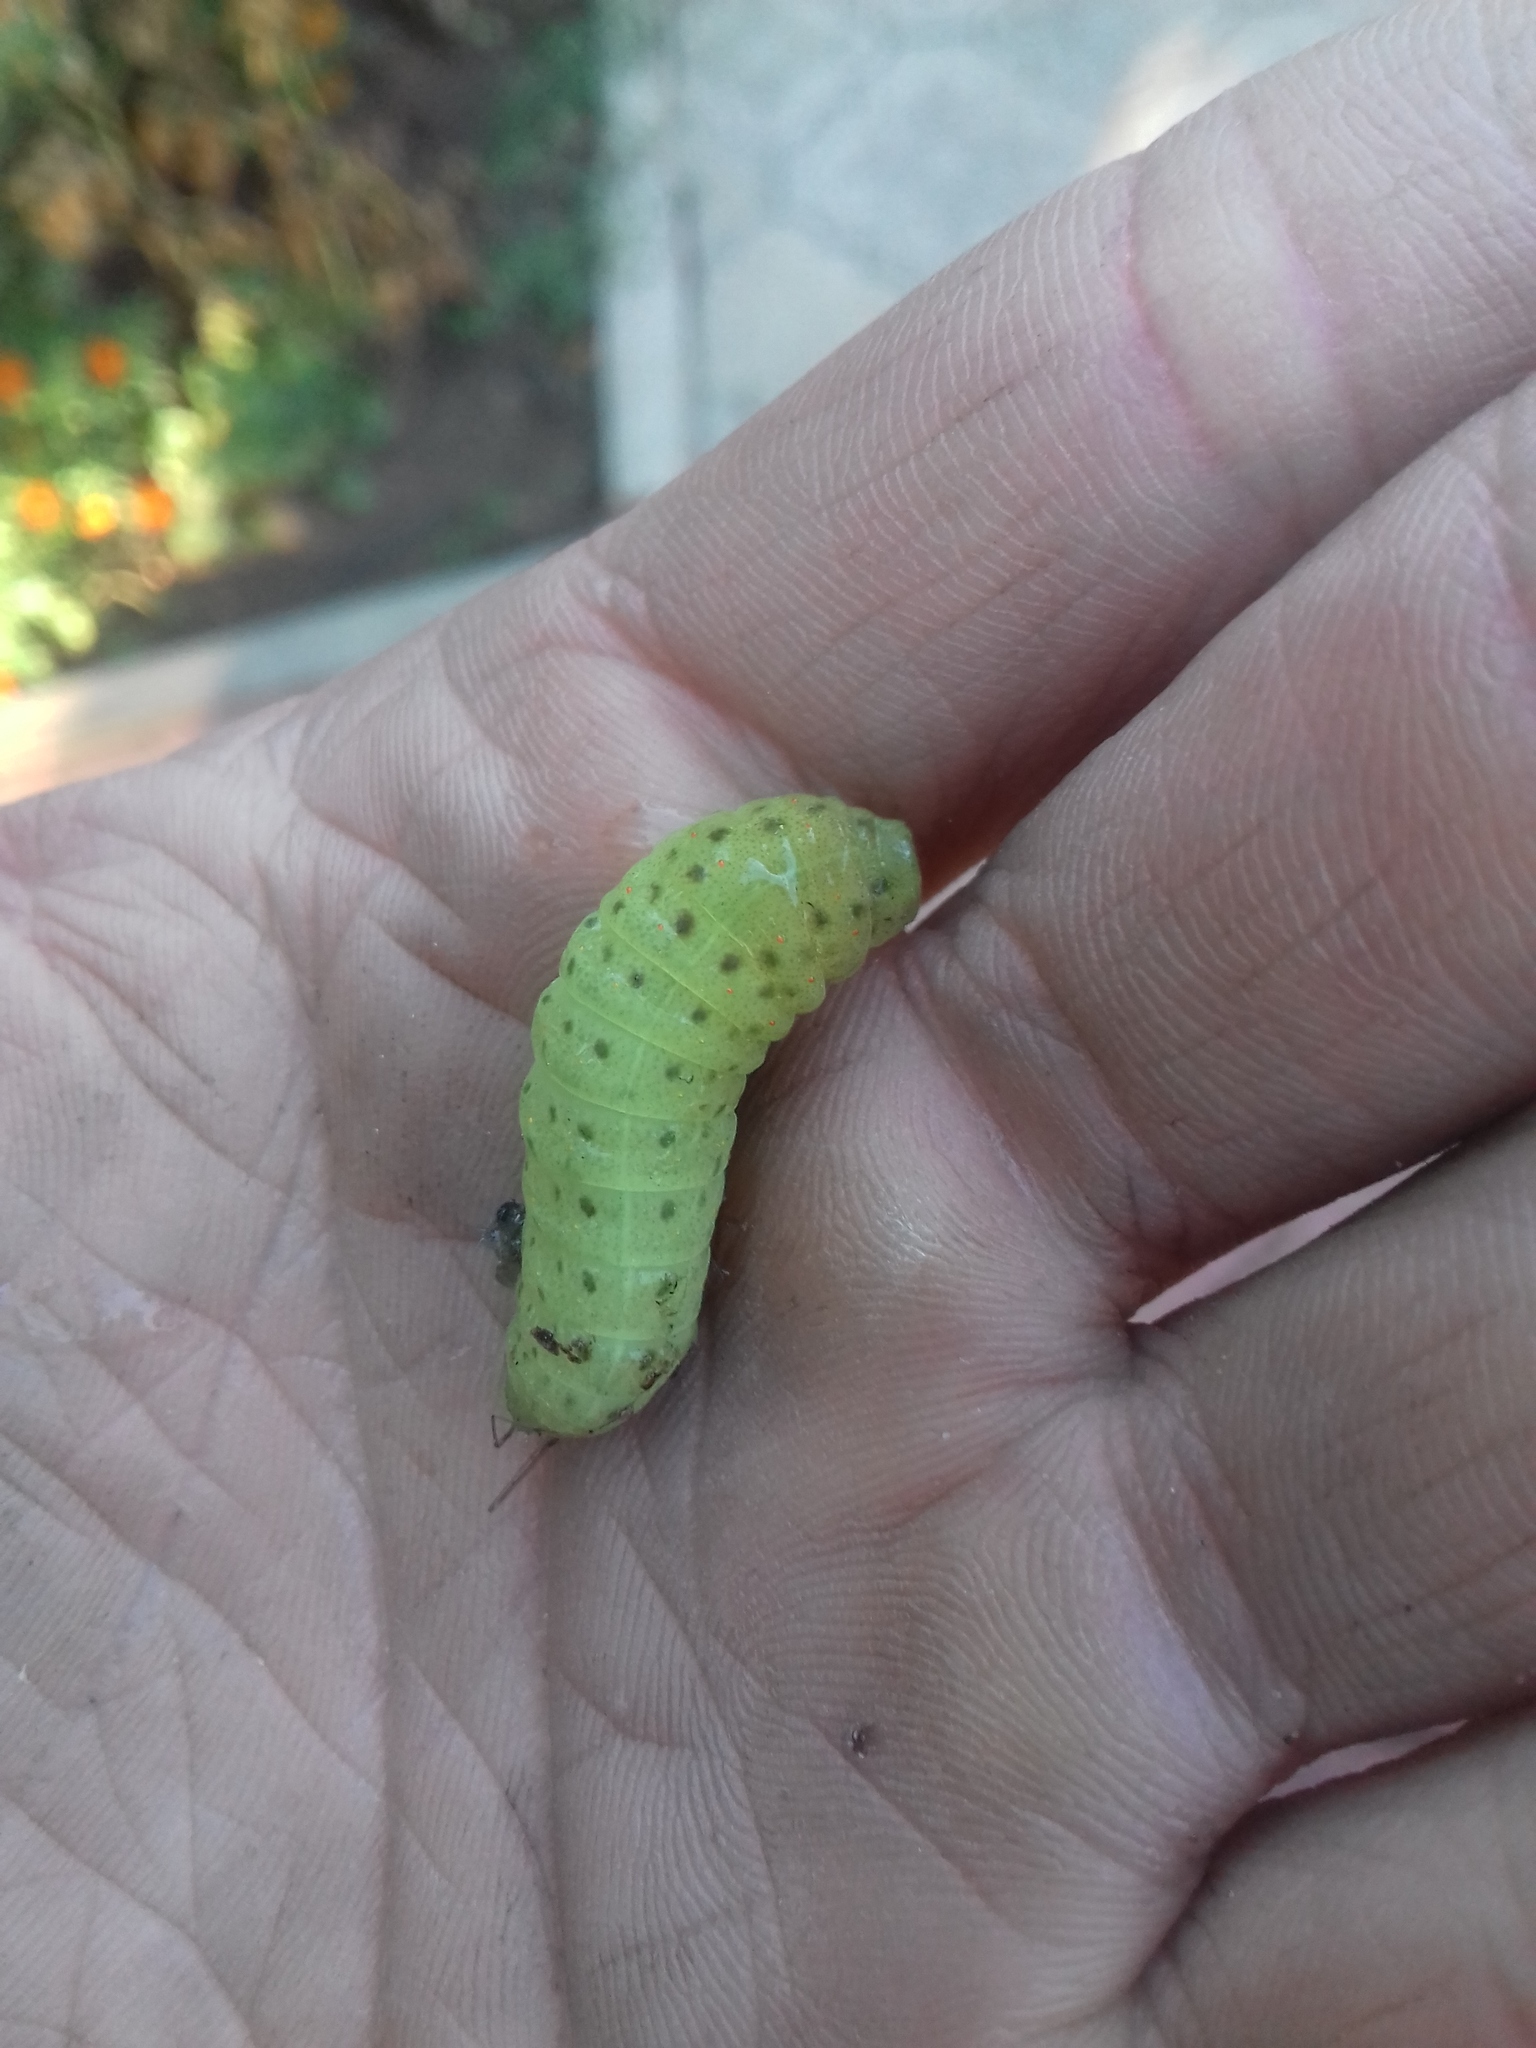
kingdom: Animalia
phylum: Arthropoda
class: Insecta
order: Lepidoptera
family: Papilionidae
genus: Iphiclides
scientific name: Iphiclides podalirius
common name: Scarce swallowtail
